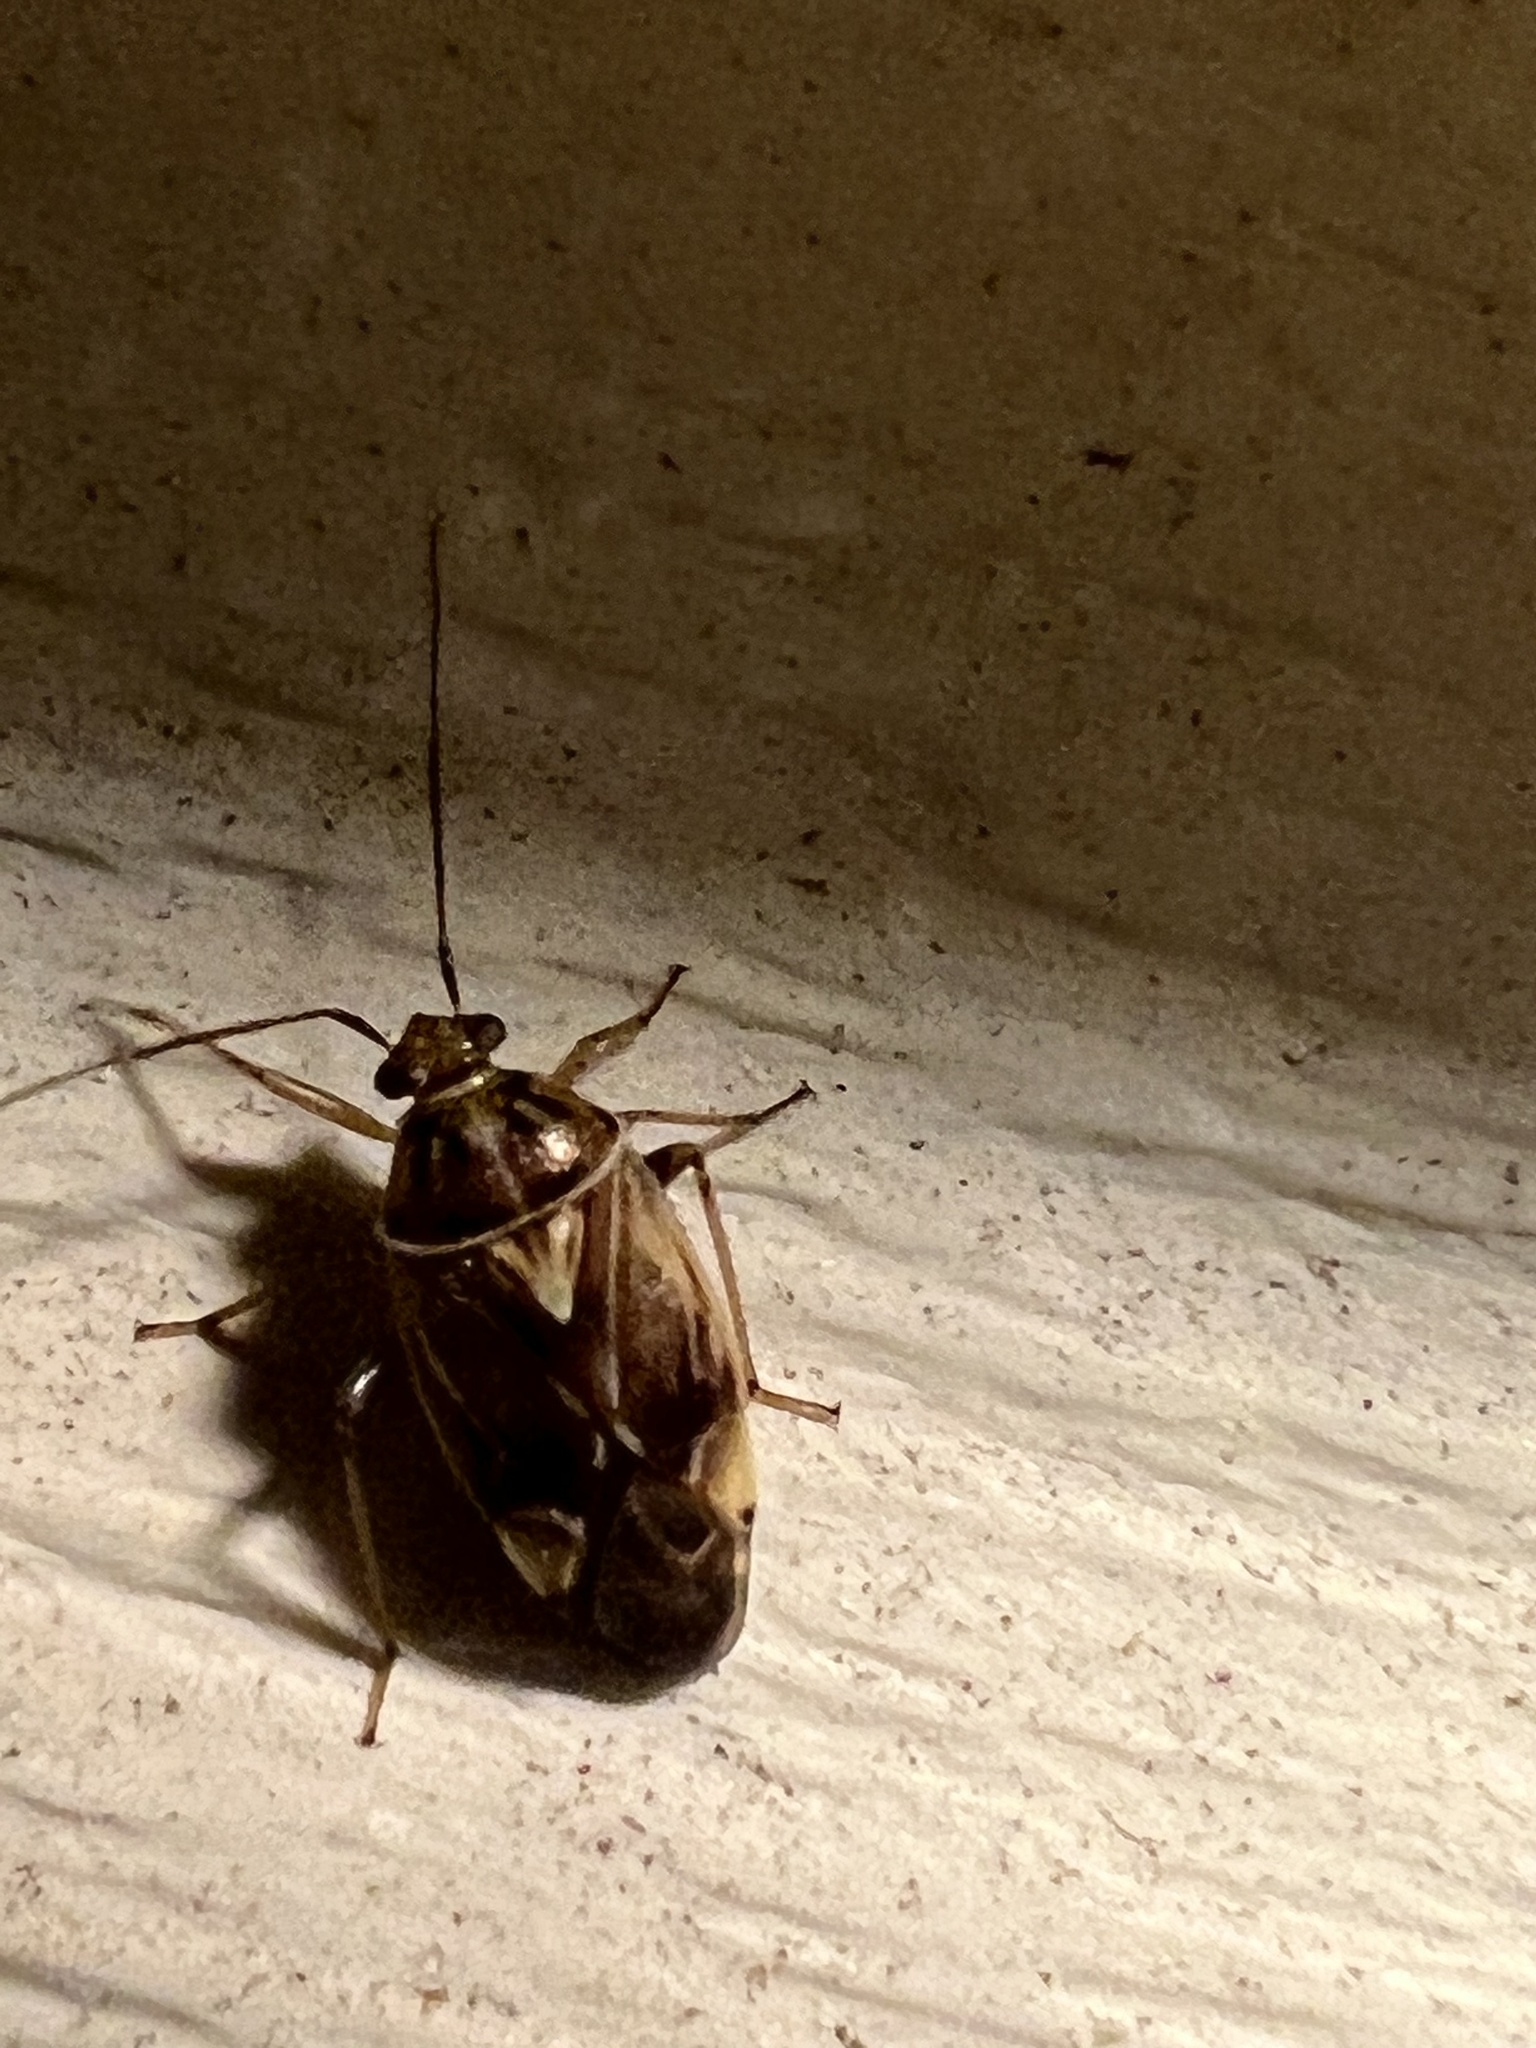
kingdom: Animalia
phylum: Arthropoda
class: Insecta
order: Hemiptera
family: Miridae
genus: Lygus
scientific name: Lygus lineolaris
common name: North american tarnished plant bug
